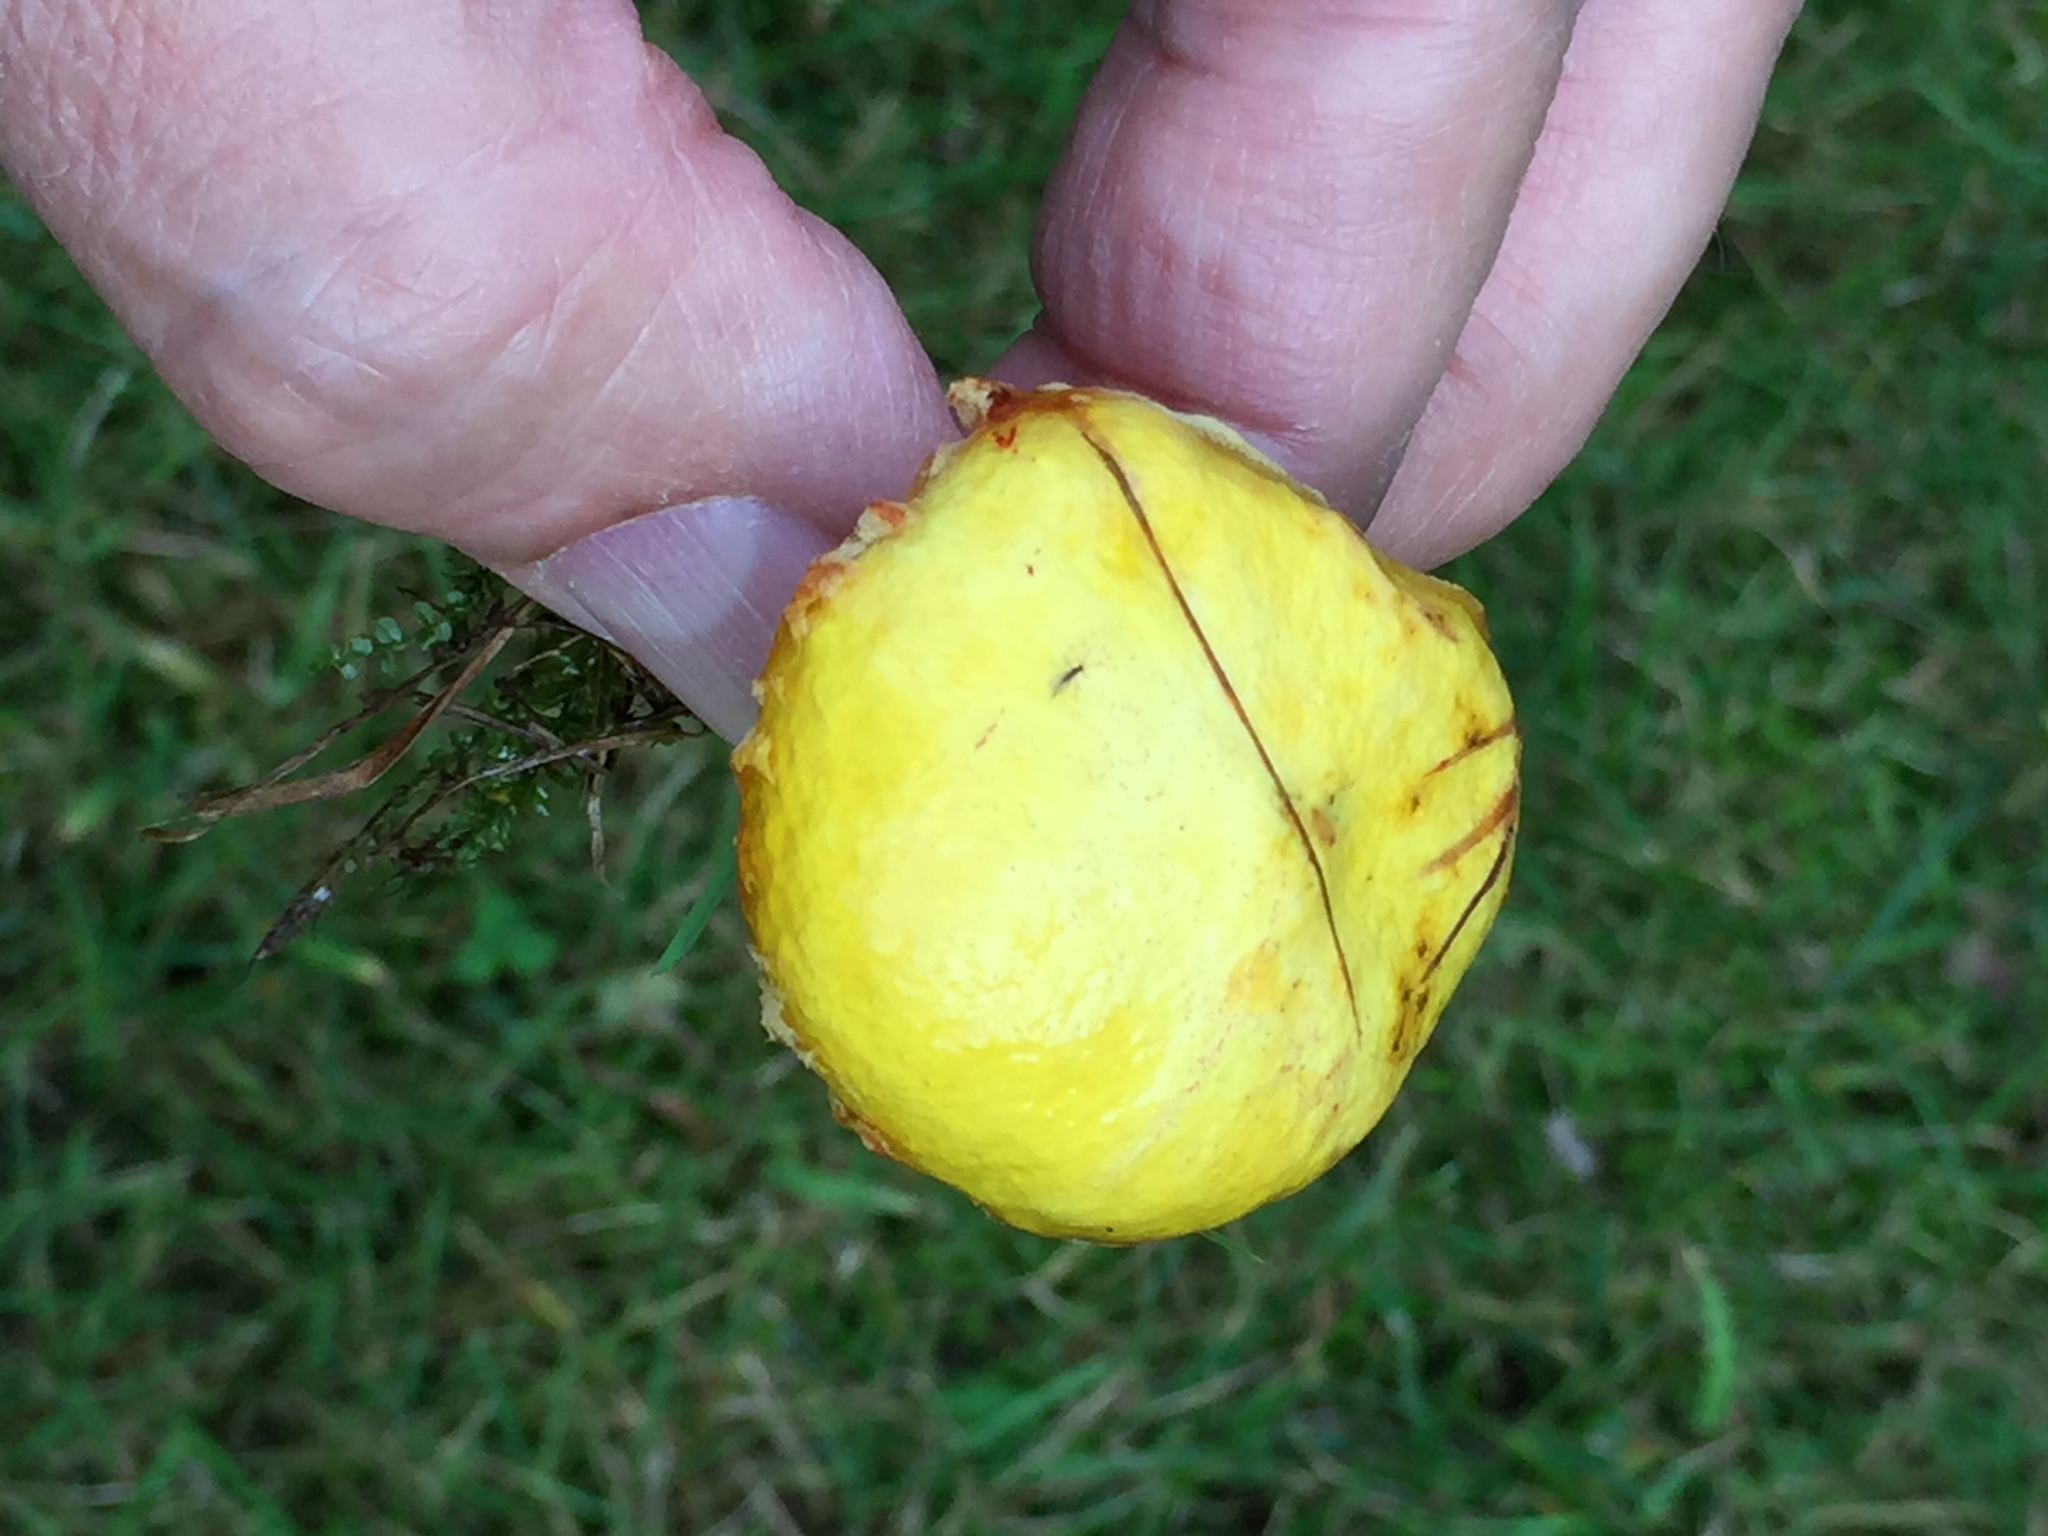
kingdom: Fungi
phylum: Basidiomycota
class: Agaricomycetes
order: Boletales
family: Suillaceae
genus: Suillus
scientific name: Suillus americanus
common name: Chicken fat mushroom
